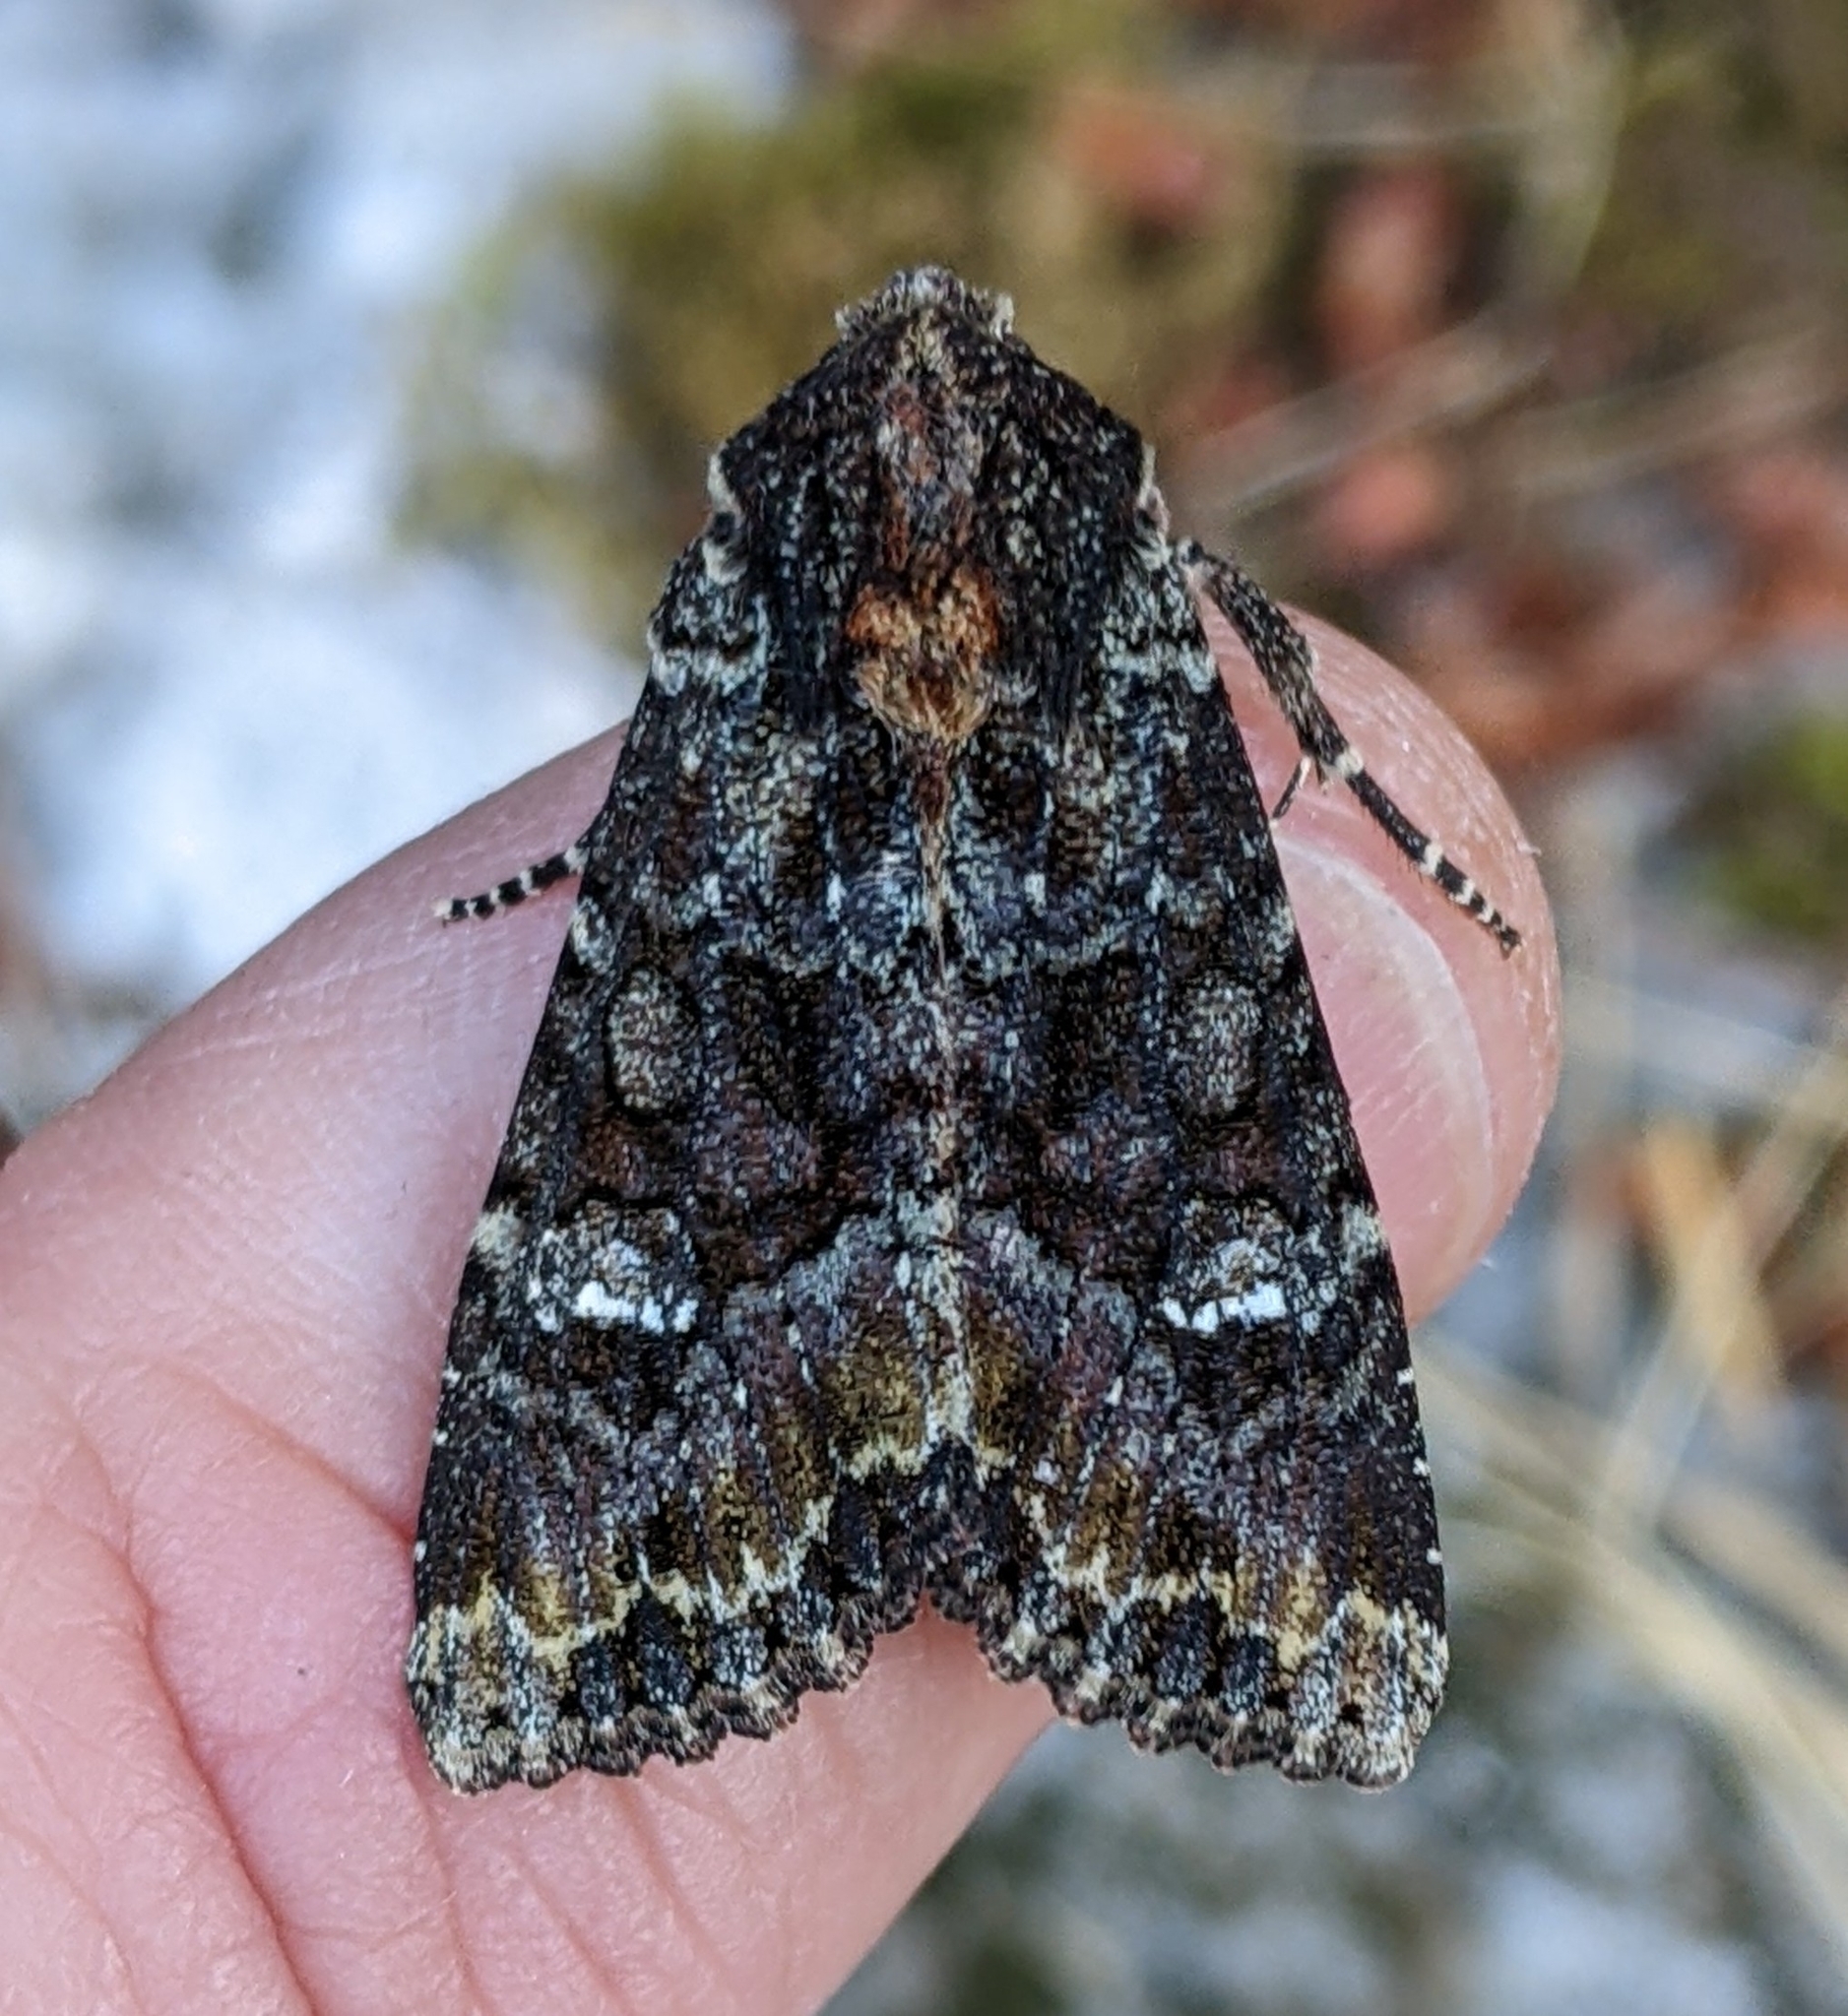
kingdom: Animalia
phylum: Arthropoda
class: Insecta
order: Lepidoptera
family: Noctuidae
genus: Apamea
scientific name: Apamea amputatrix
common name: Yellow-headed cutworm moth
